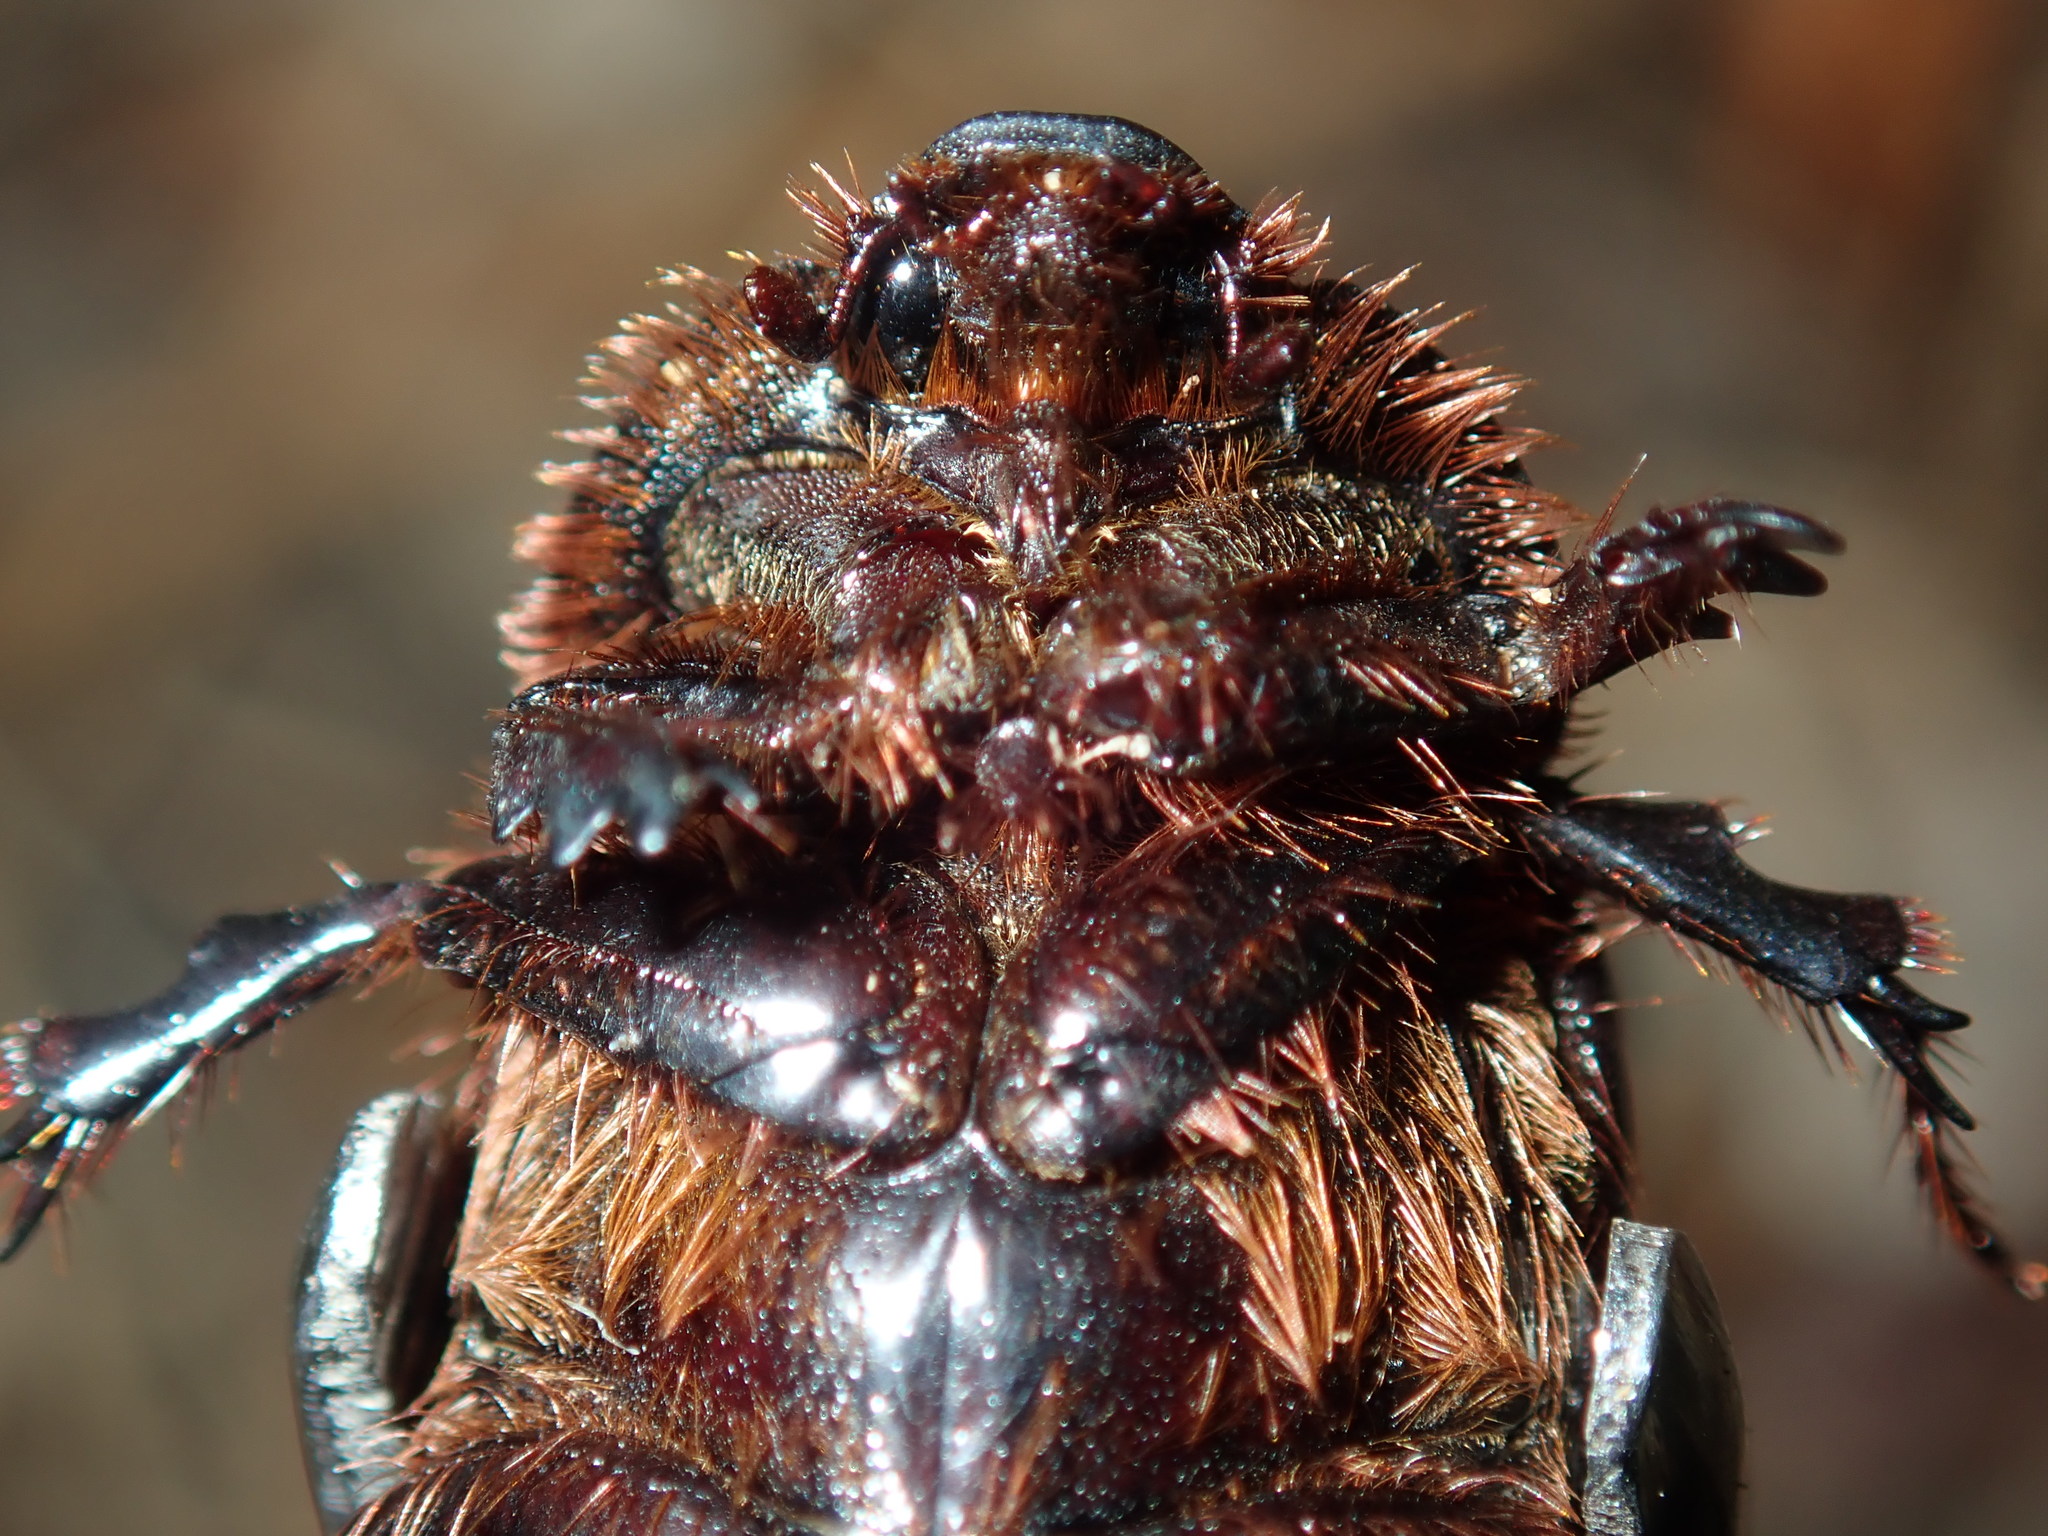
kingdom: Animalia
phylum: Arthropoda
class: Insecta
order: Coleoptera
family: Scarabaeidae
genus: Adoryphorus
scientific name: Adoryphorus couloni
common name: Redheaded pasture cockchafer
